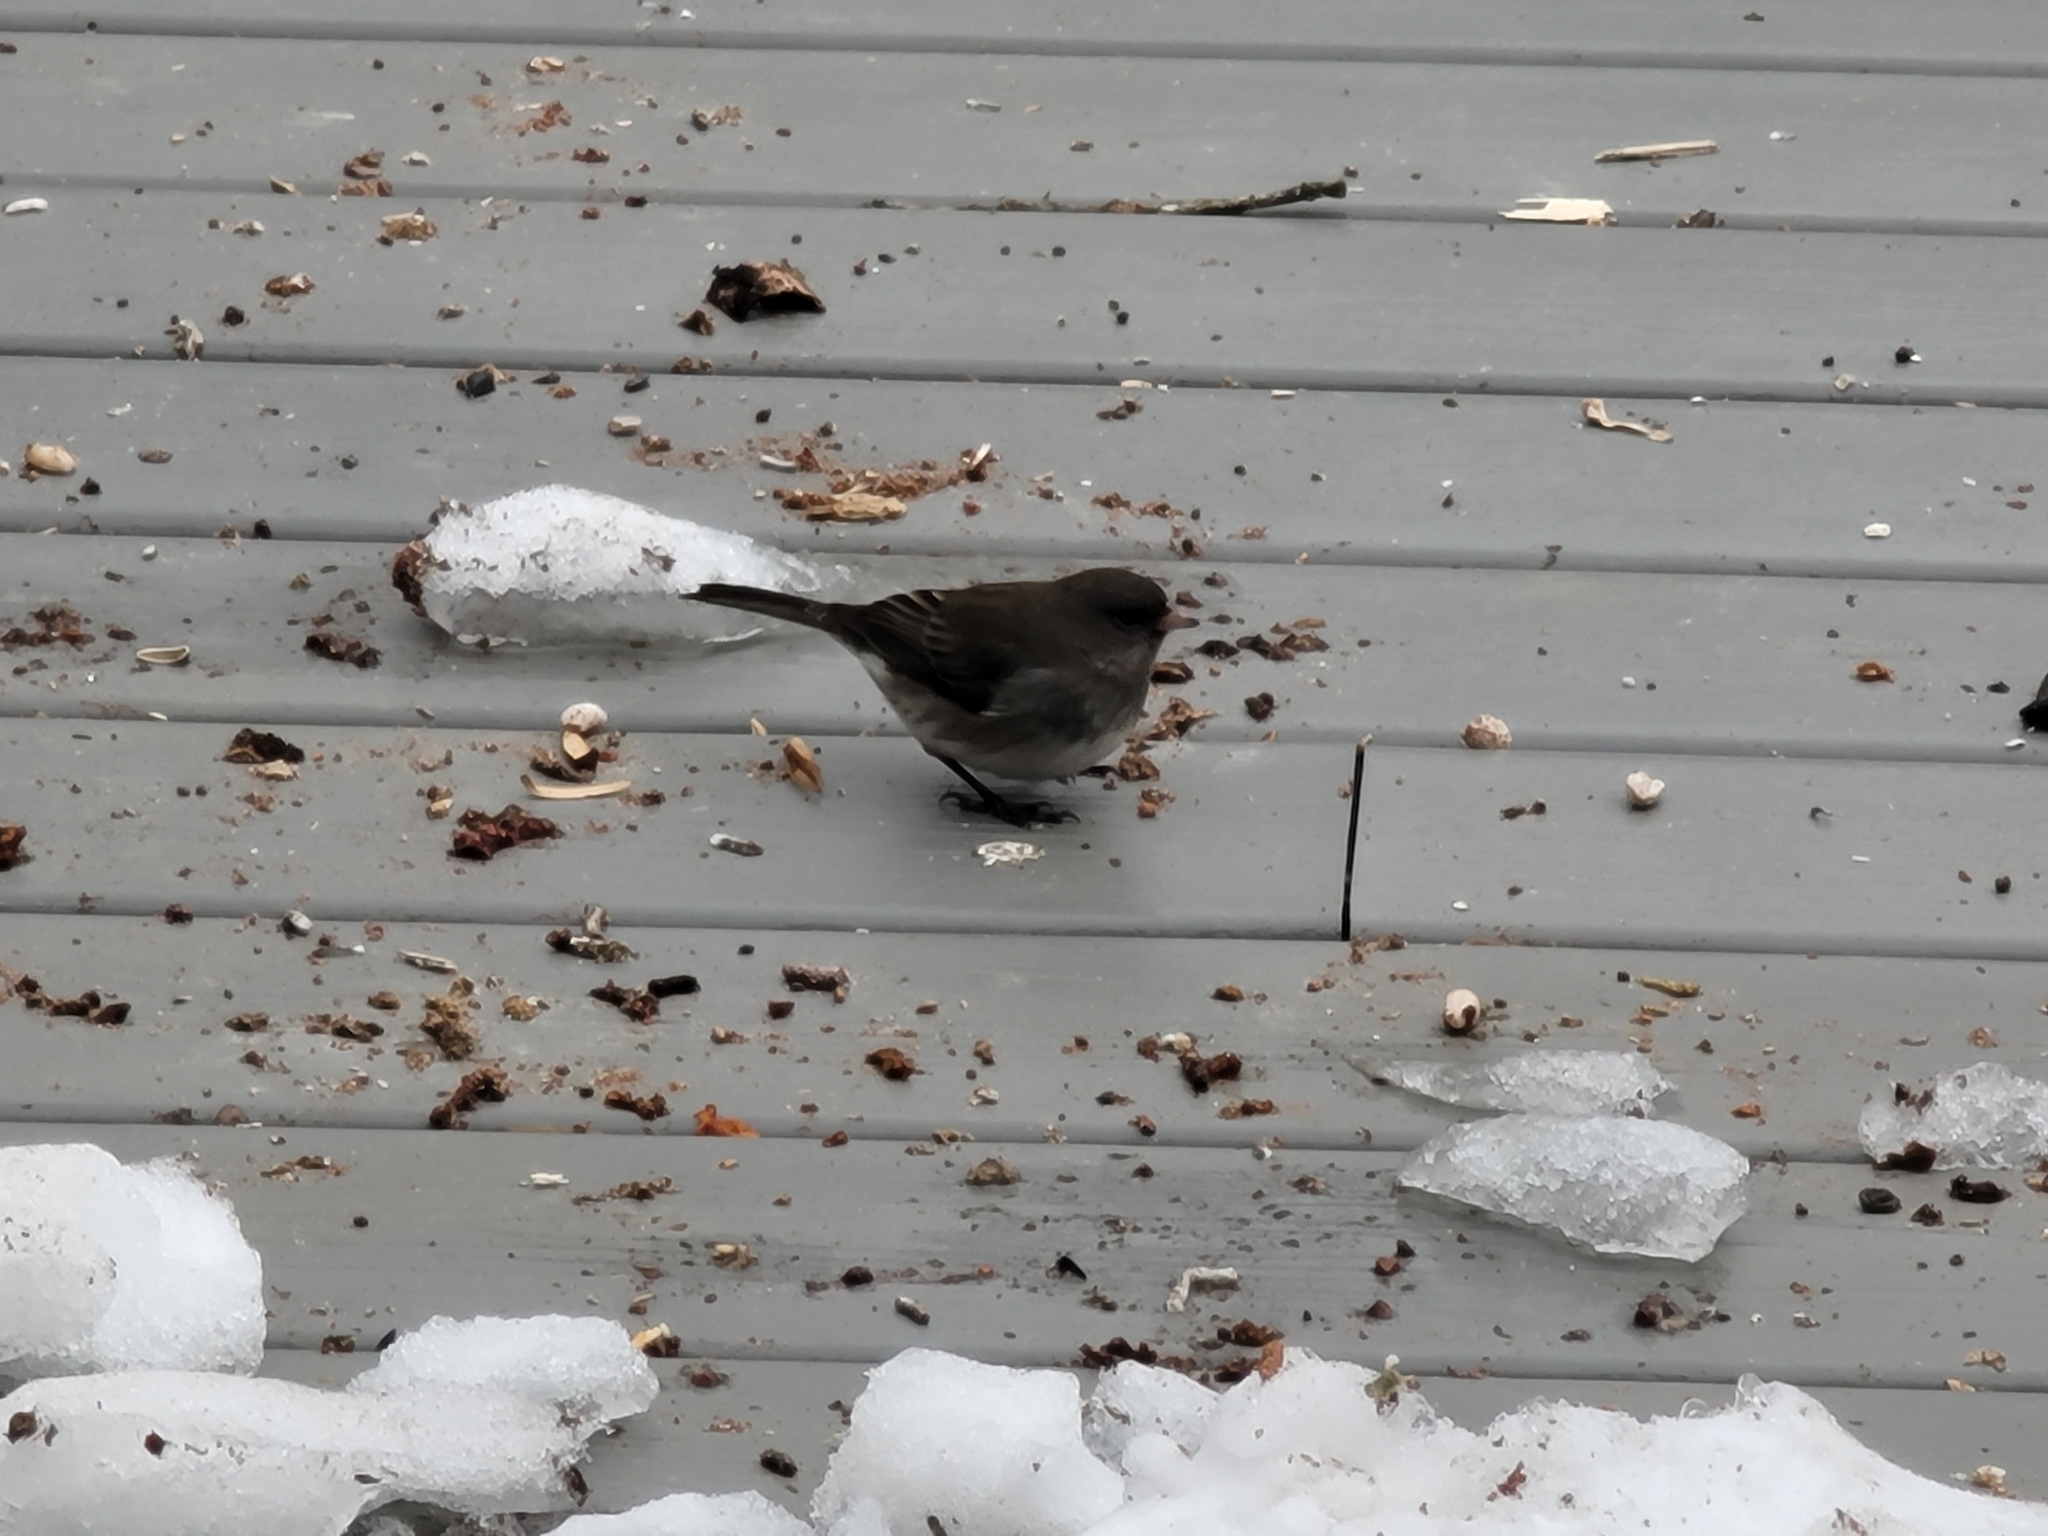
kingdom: Animalia
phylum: Chordata
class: Aves
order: Passeriformes
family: Passerellidae
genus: Junco
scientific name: Junco hyemalis
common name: Dark-eyed junco
